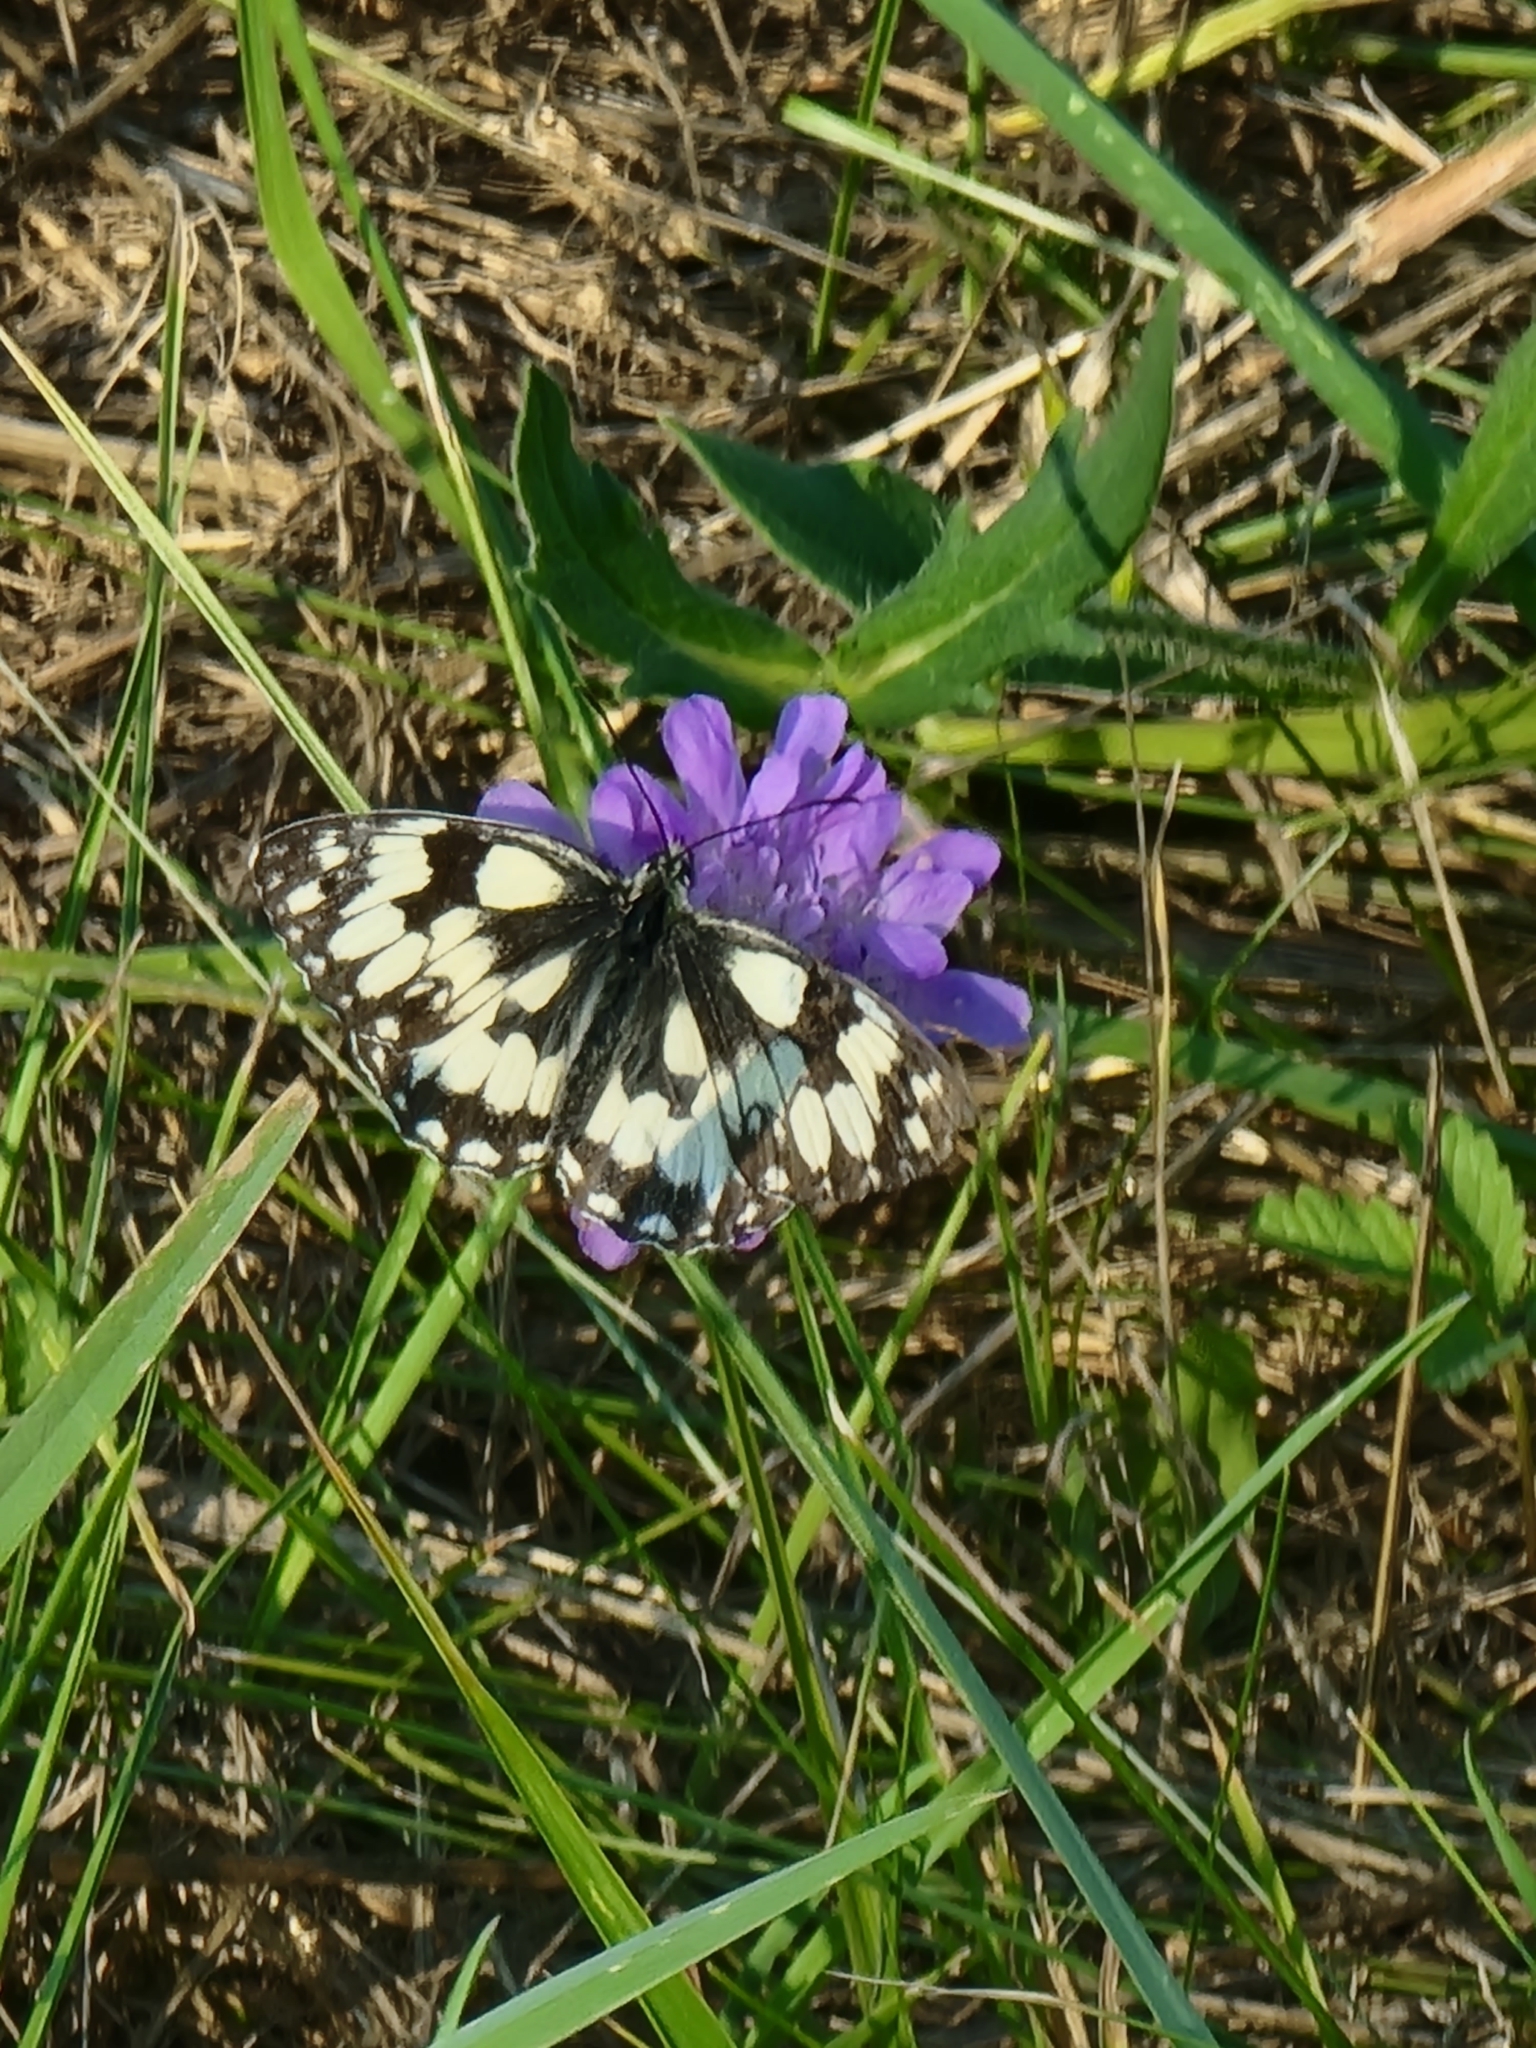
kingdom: Animalia
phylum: Arthropoda
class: Insecta
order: Lepidoptera
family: Nymphalidae
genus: Melanargia
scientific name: Melanargia galathea
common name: Marbled white
